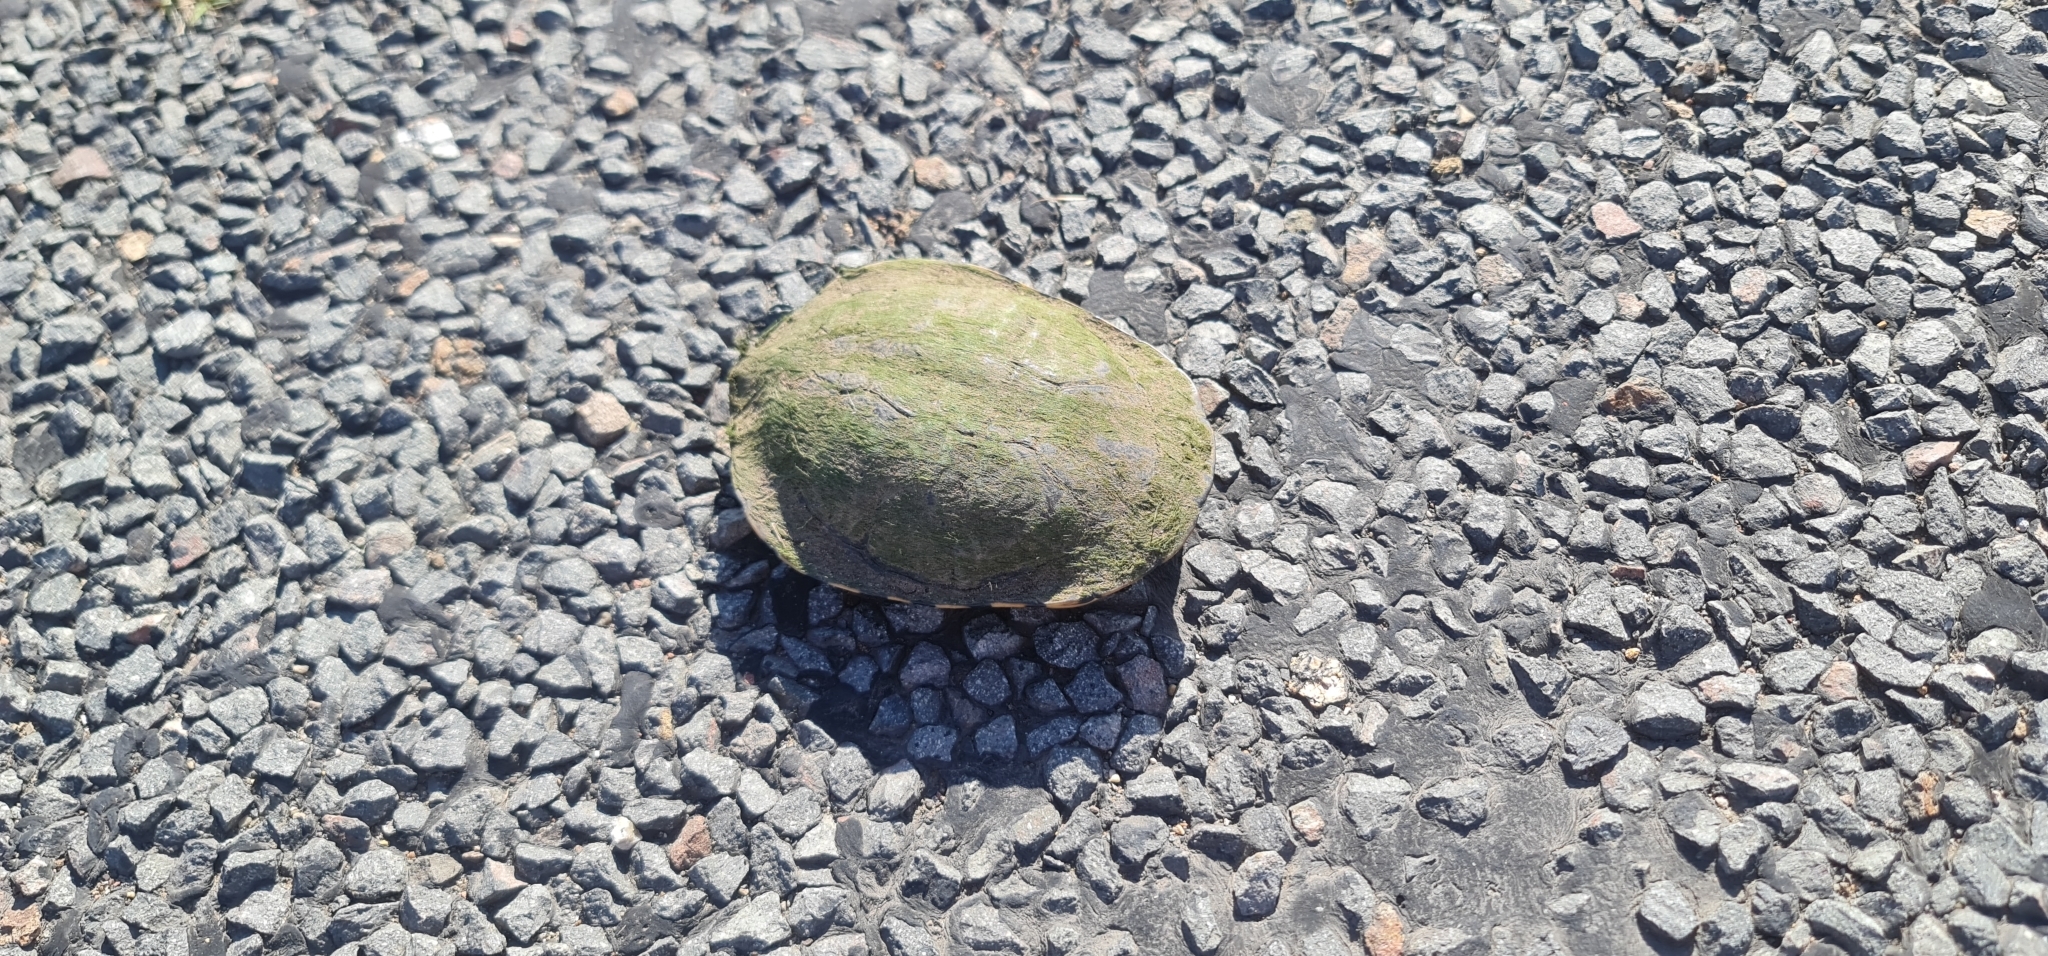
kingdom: Animalia
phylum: Chordata
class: Testudines
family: Chelidae
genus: Chelodina
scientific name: Chelodina longicollis
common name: Eastern snake-necked turtle
